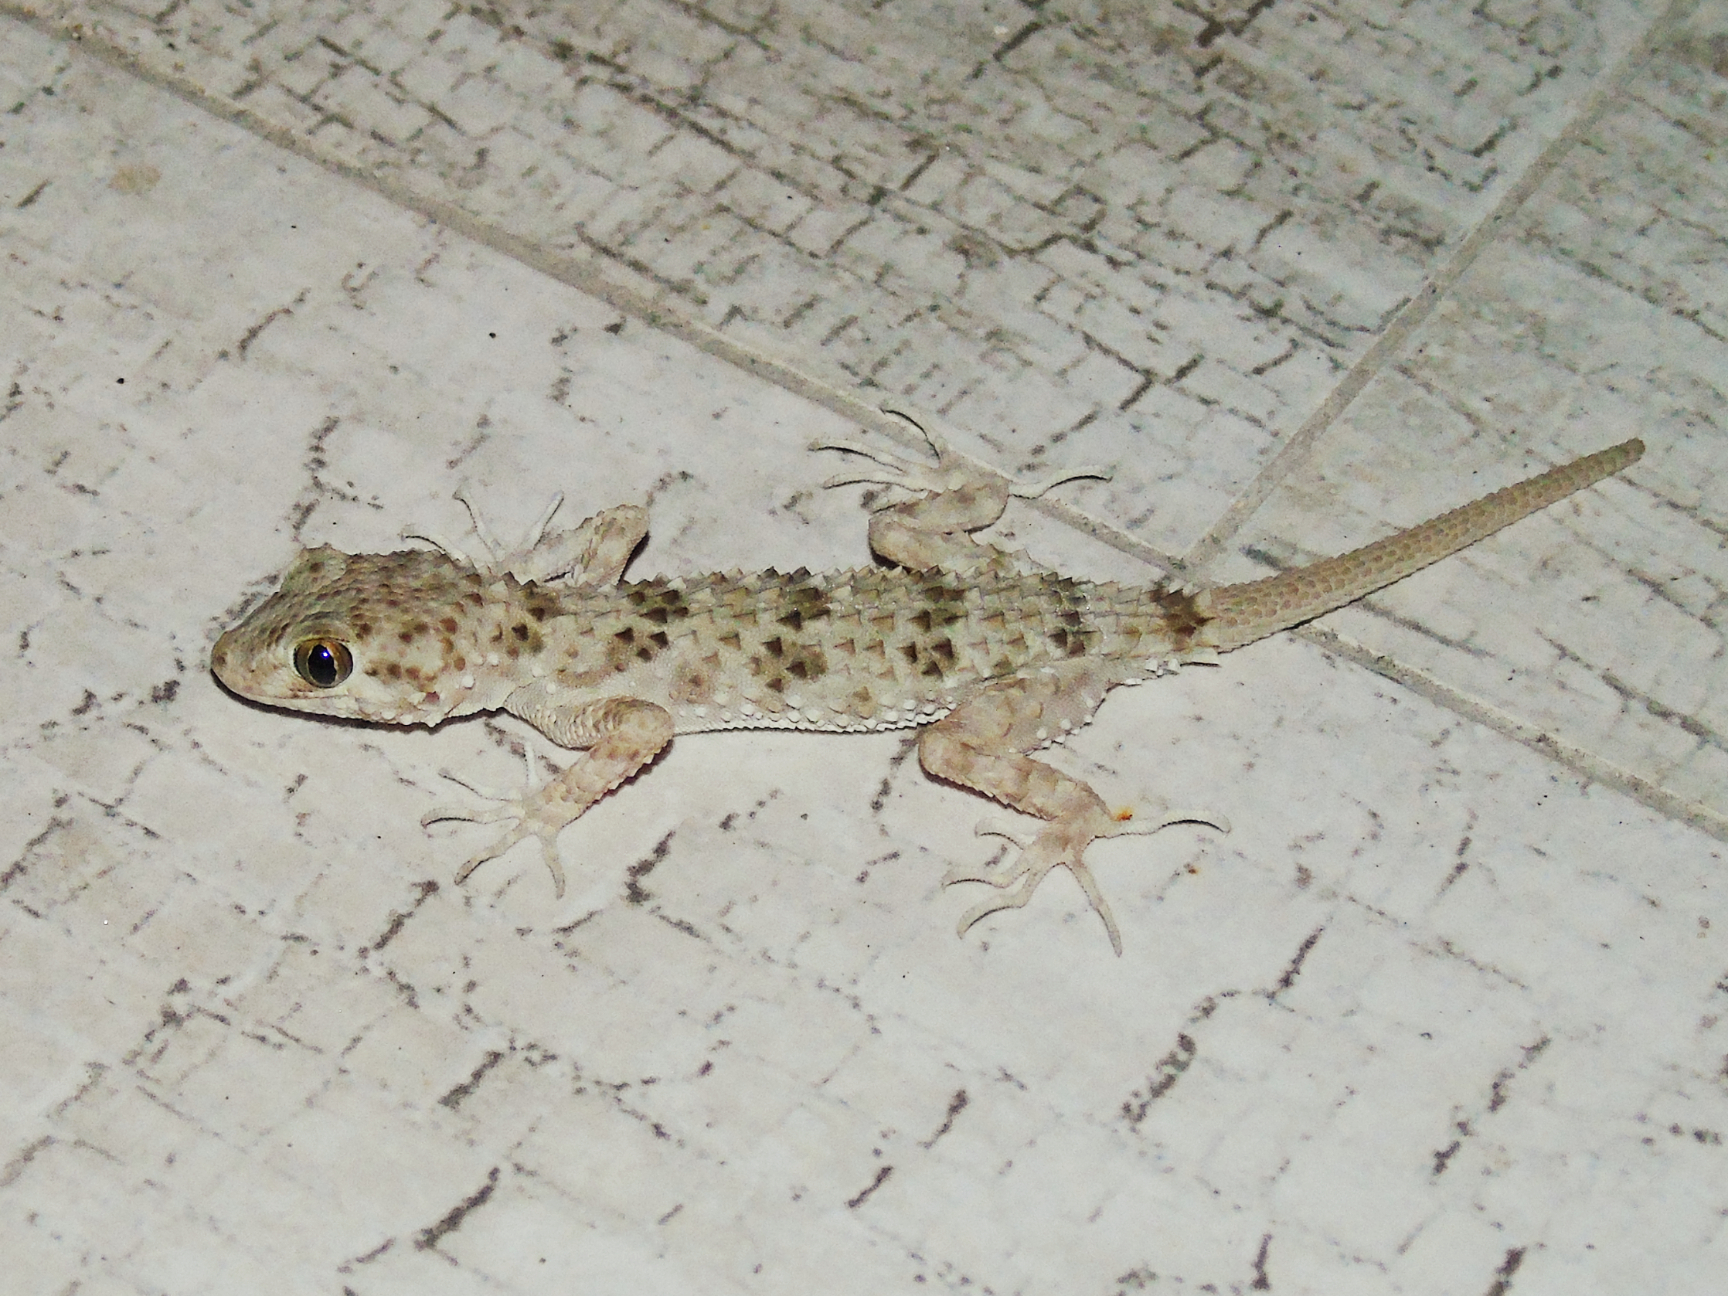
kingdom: Animalia
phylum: Chordata
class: Squamata
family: Gekkonidae
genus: Tenuidactylus
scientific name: Tenuidactylus caspius
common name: Caspian bent-toed gecko
